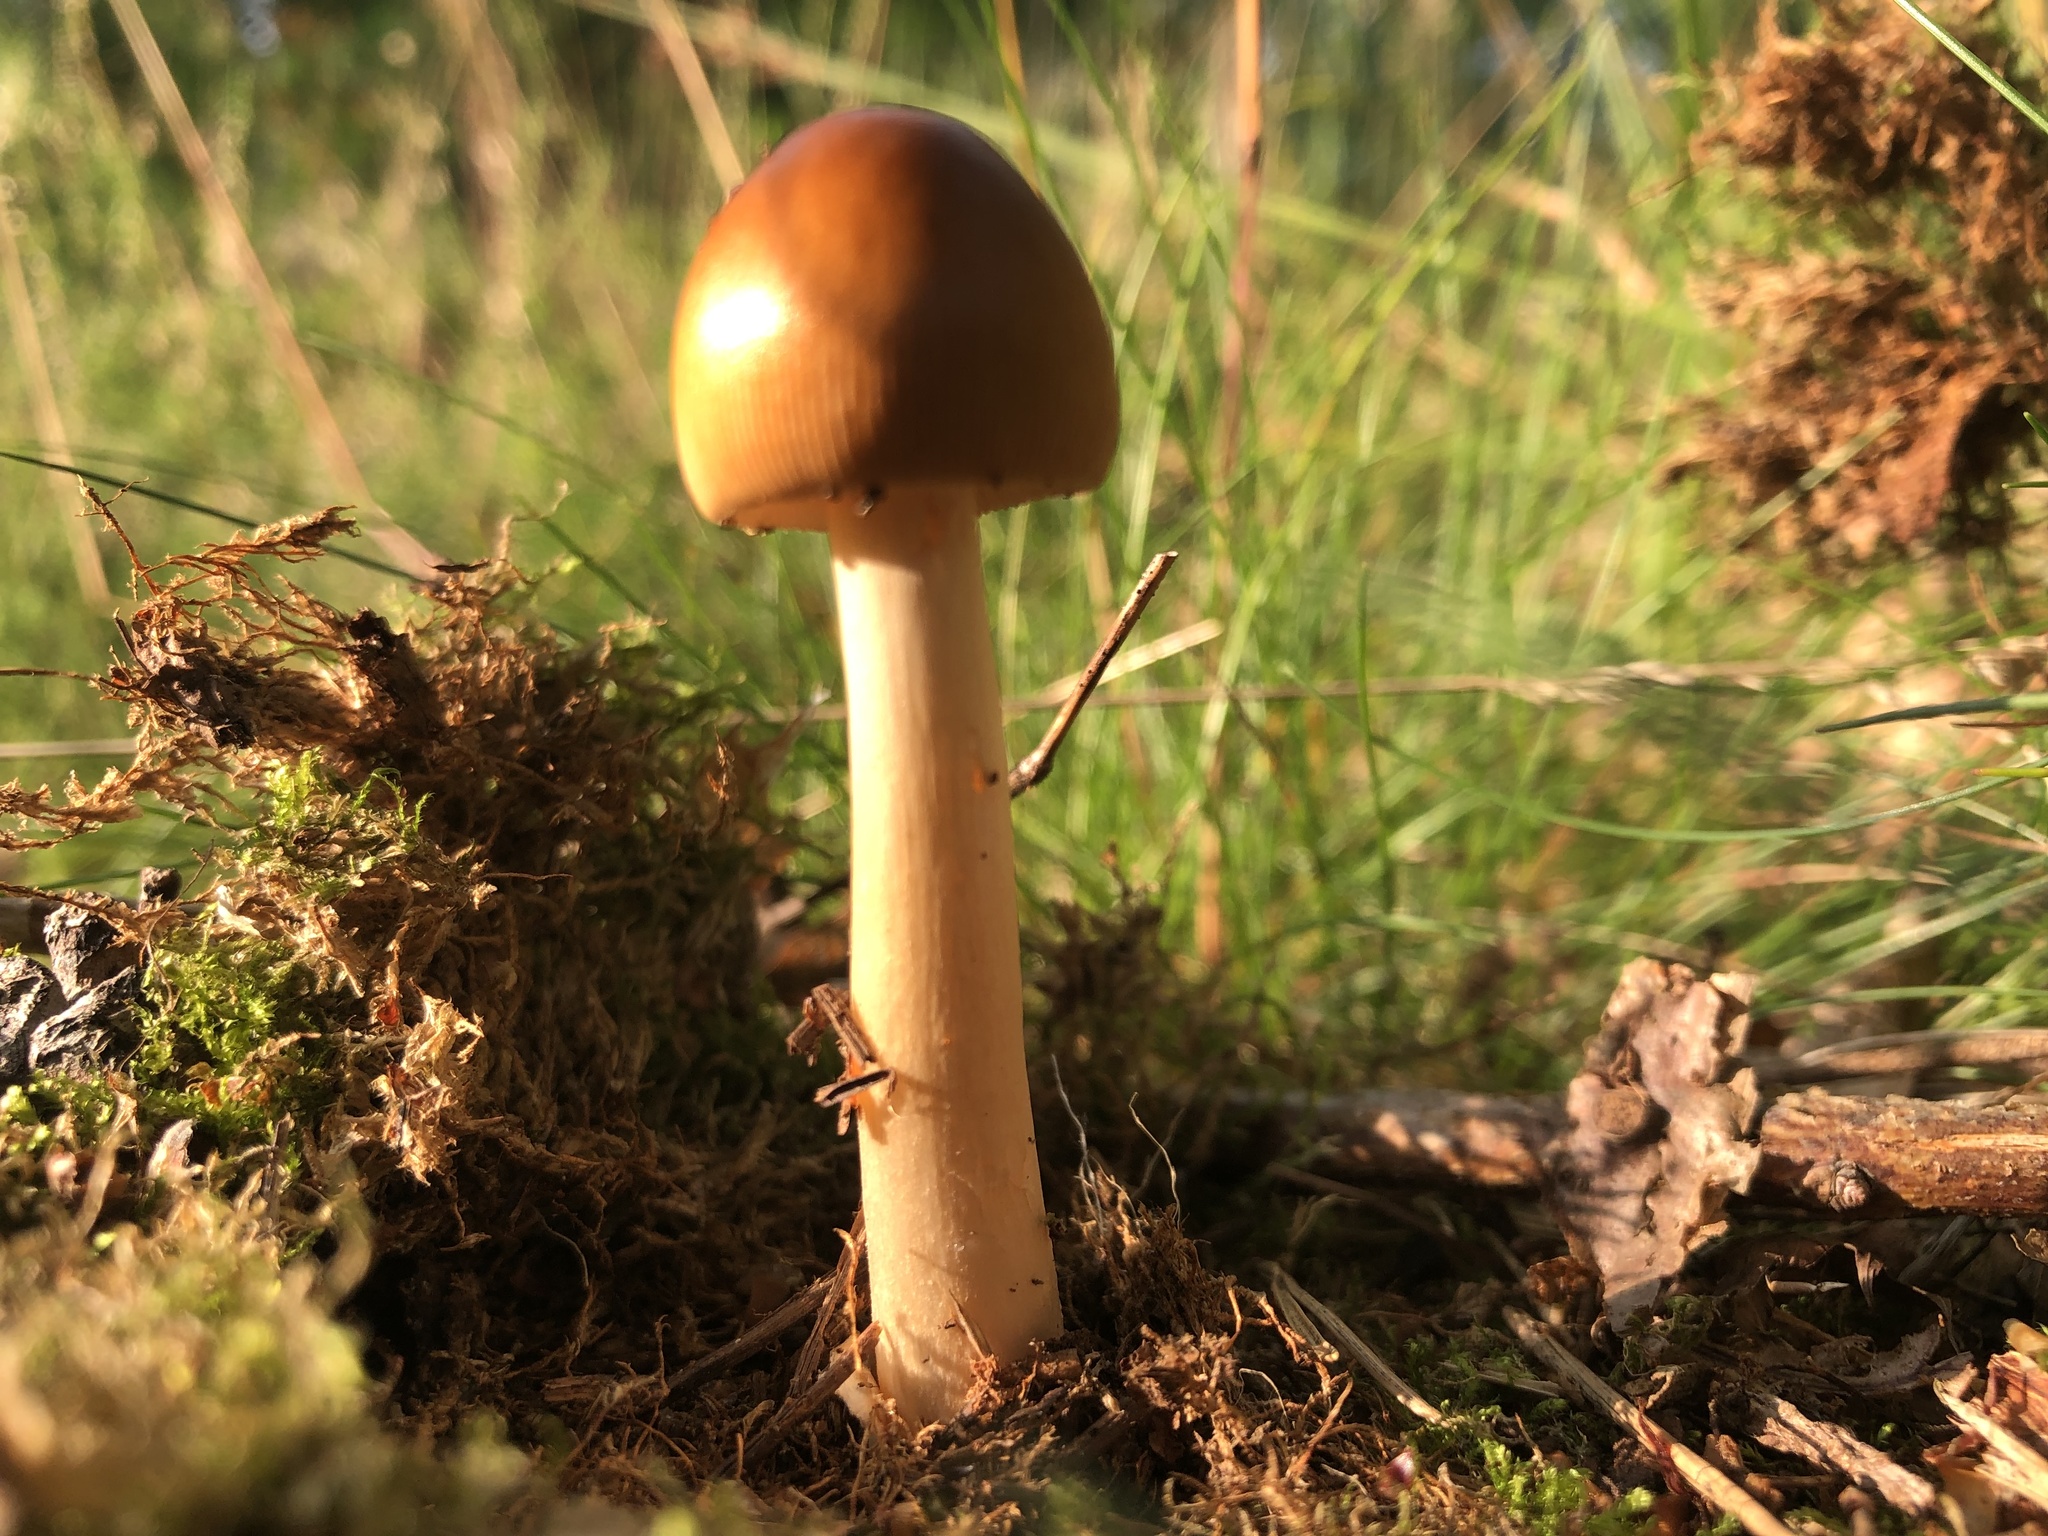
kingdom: Fungi
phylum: Basidiomycota
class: Agaricomycetes
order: Agaricales
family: Amanitaceae
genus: Amanita
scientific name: Amanita fulva
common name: Tawny grisette
